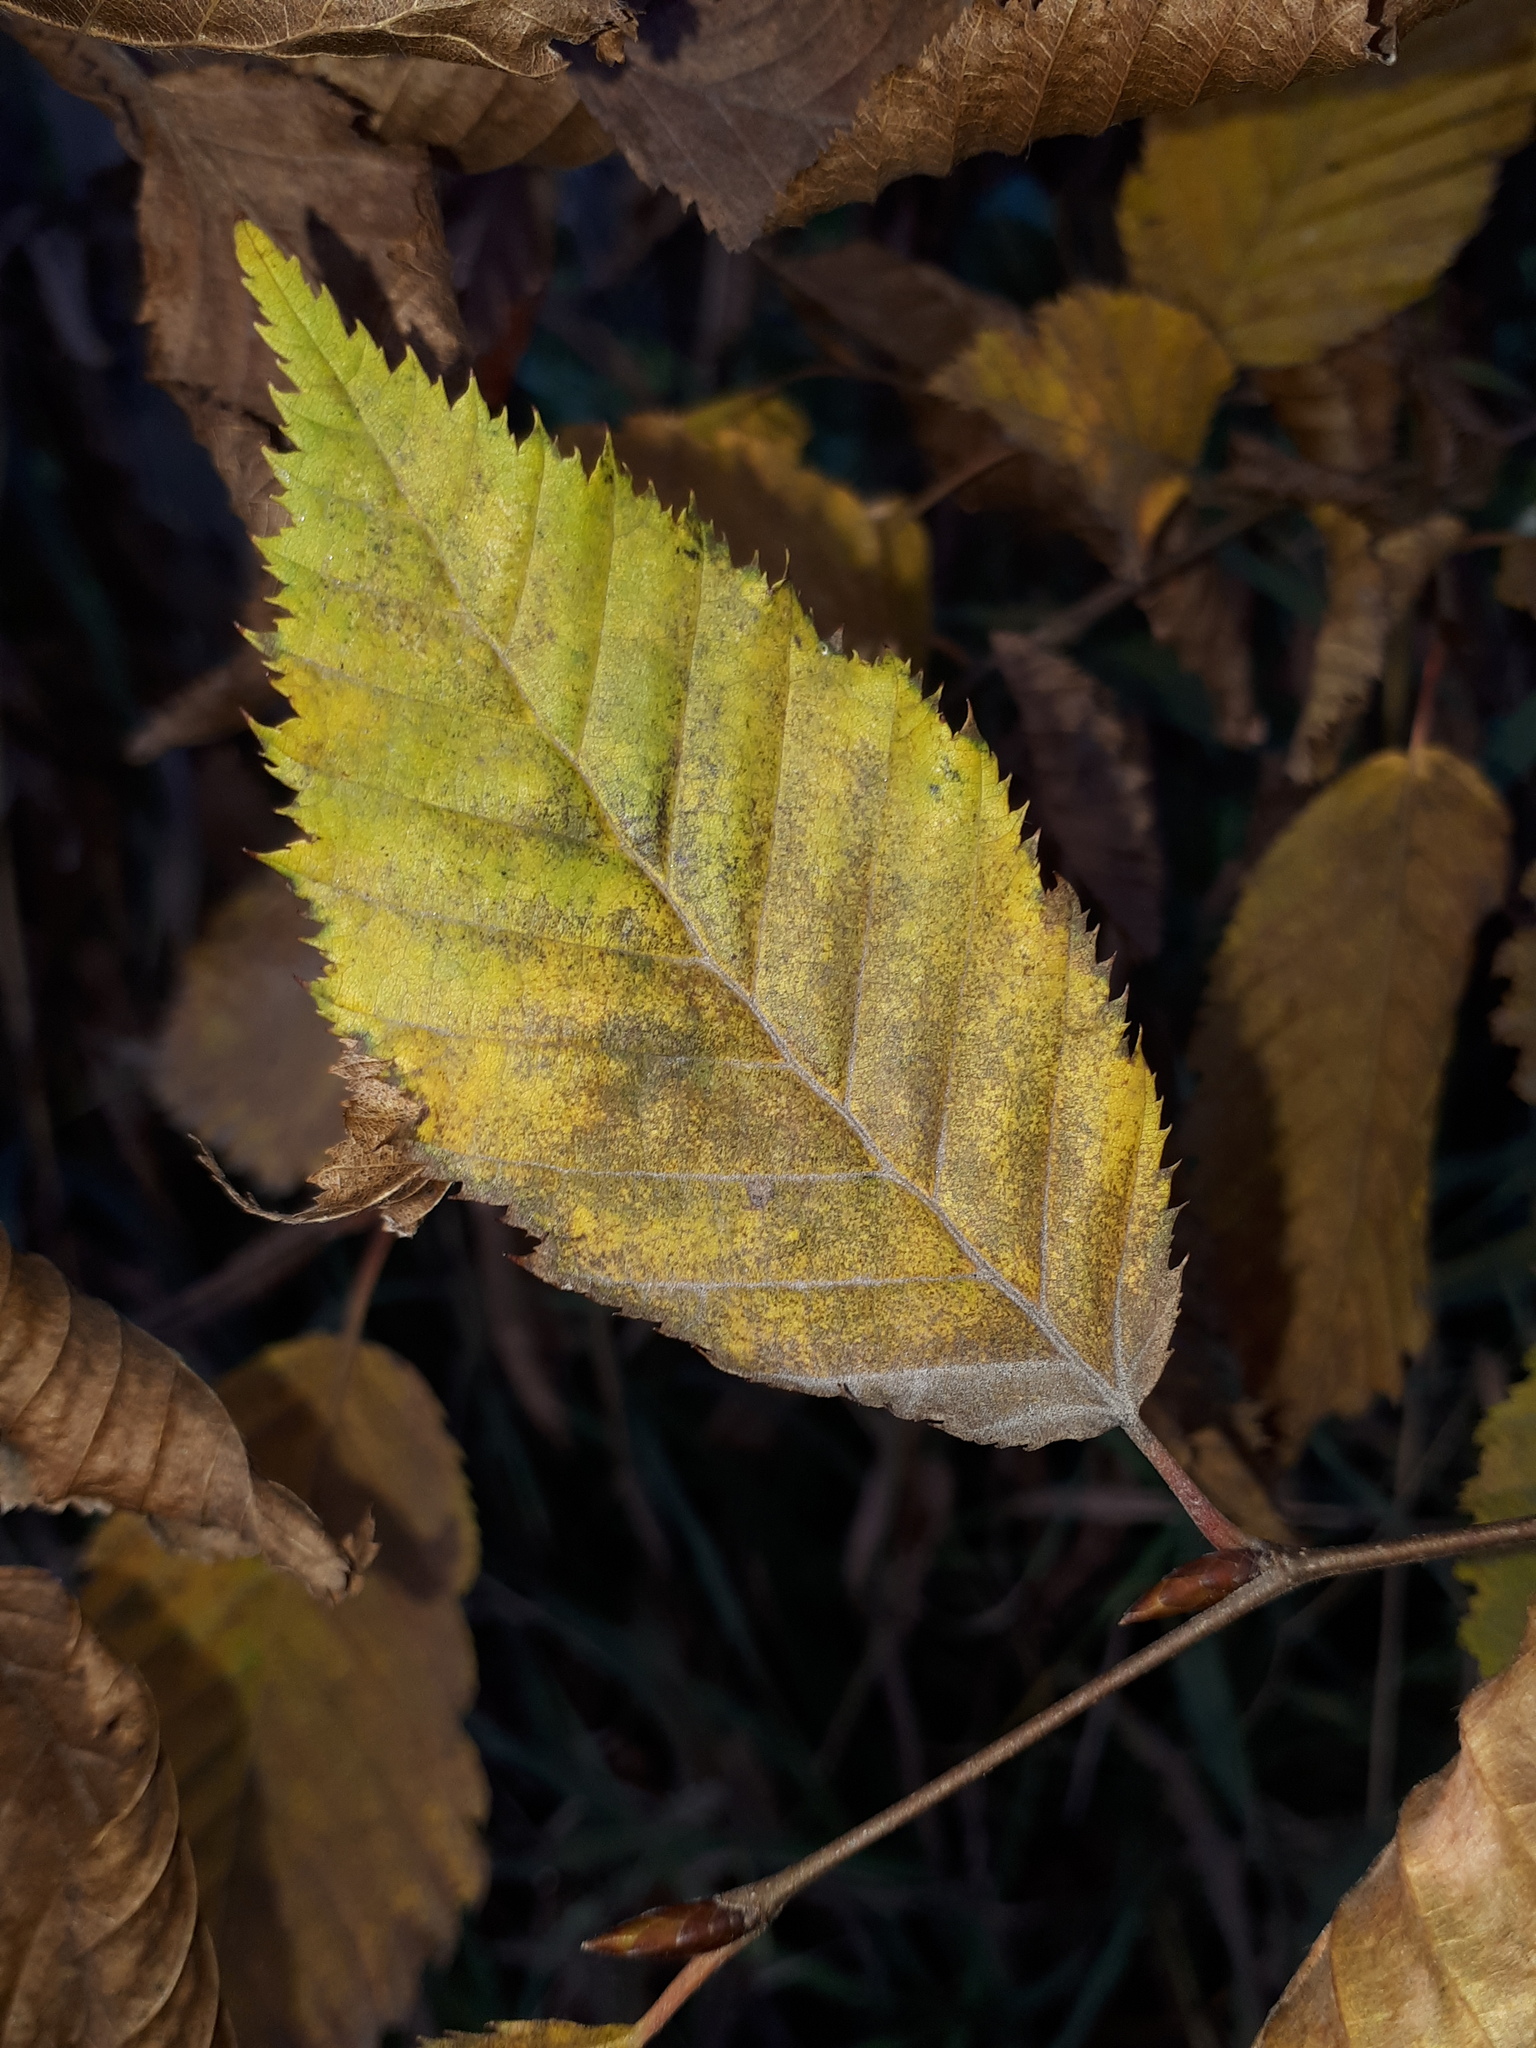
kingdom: Plantae
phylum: Tracheophyta
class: Magnoliopsida
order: Fagales
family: Betulaceae
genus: Carpinus
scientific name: Carpinus betulus
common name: Hornbeam
